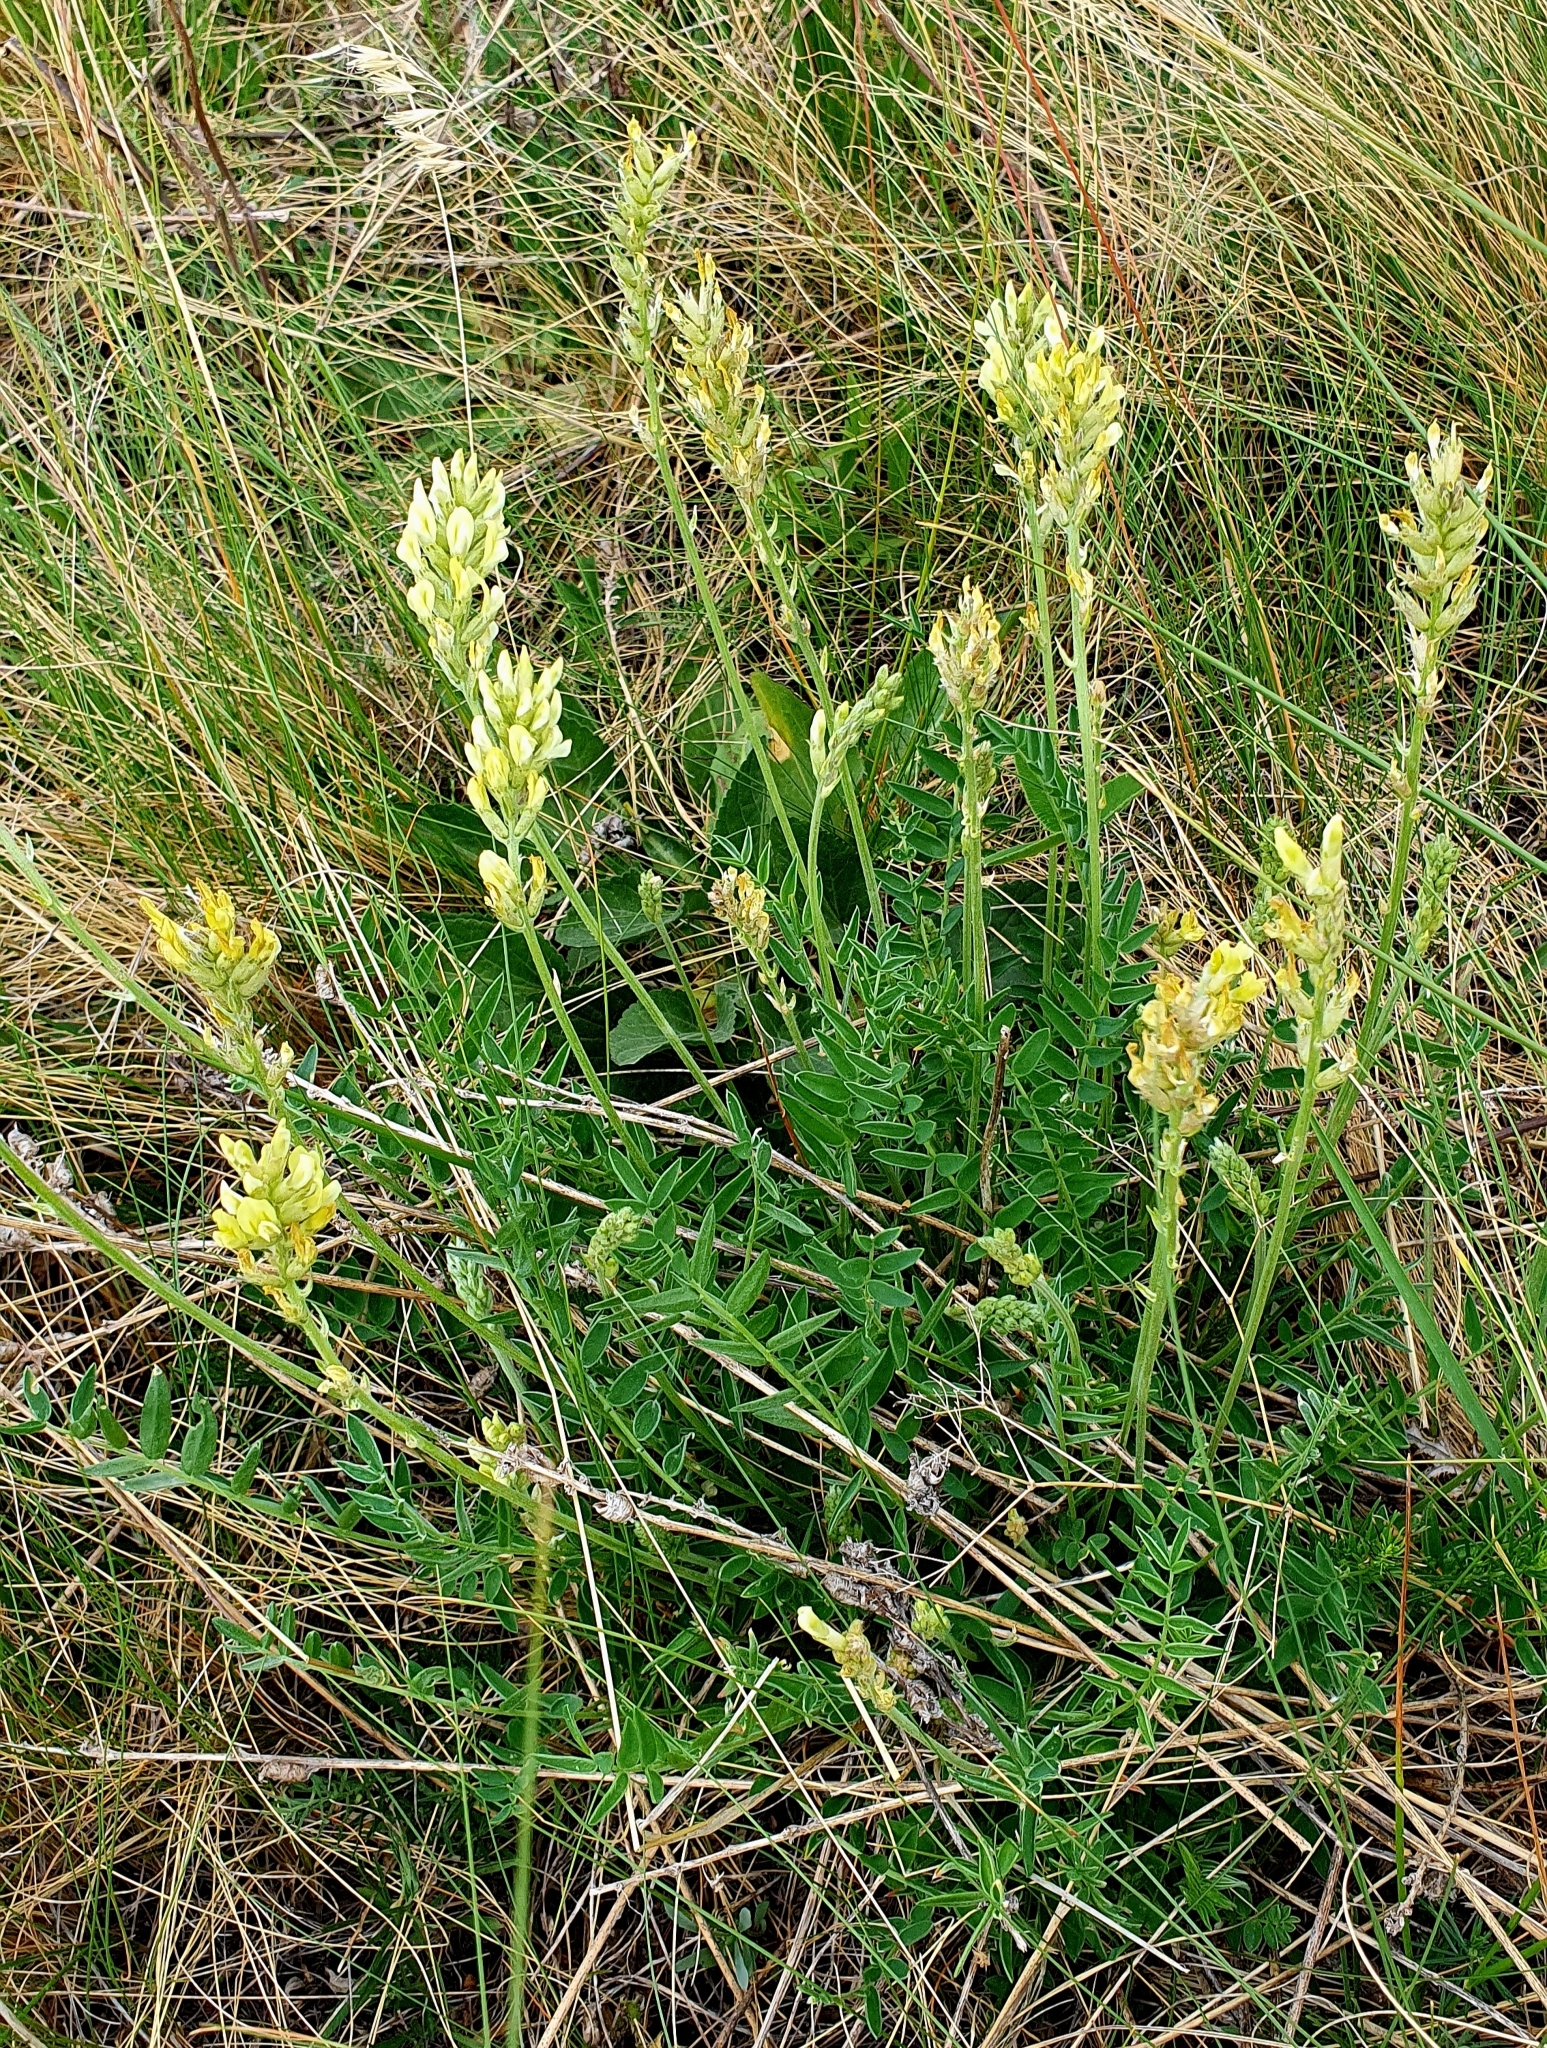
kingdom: Plantae
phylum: Tracheophyta
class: Magnoliopsida
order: Fabales
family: Fabaceae
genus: Oxytropis
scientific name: Oxytropis hippolyti
